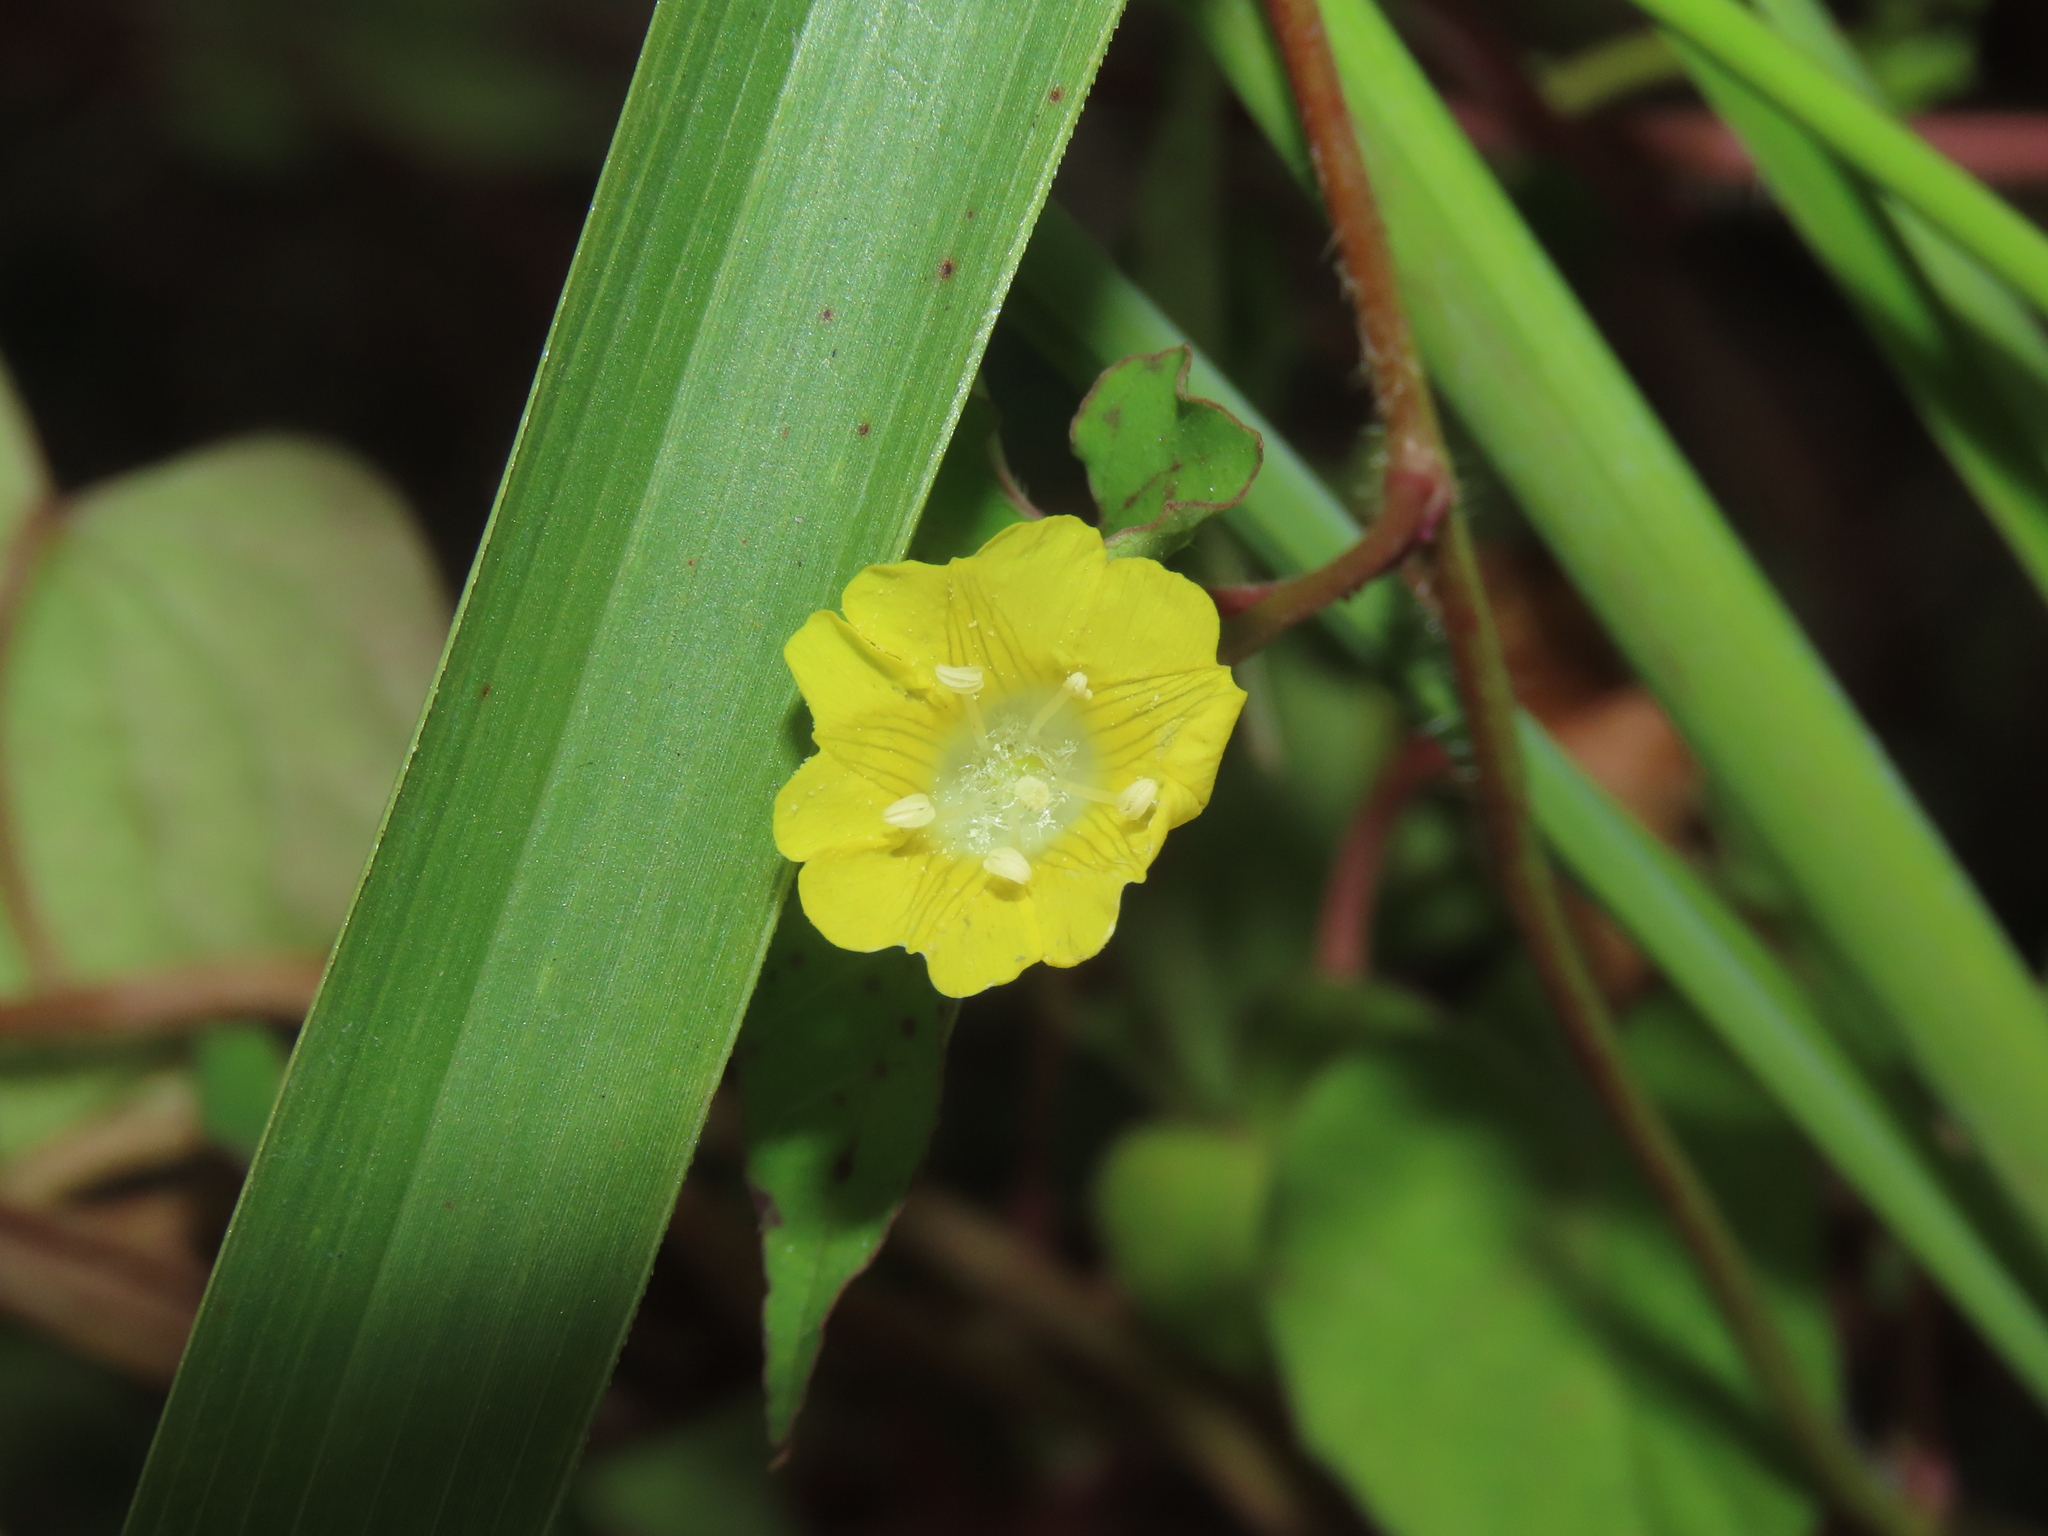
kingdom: Plantae
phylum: Tracheophyta
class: Magnoliopsida
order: Solanales
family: Convolvulaceae
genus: Merremia
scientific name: Merremia hederacea
